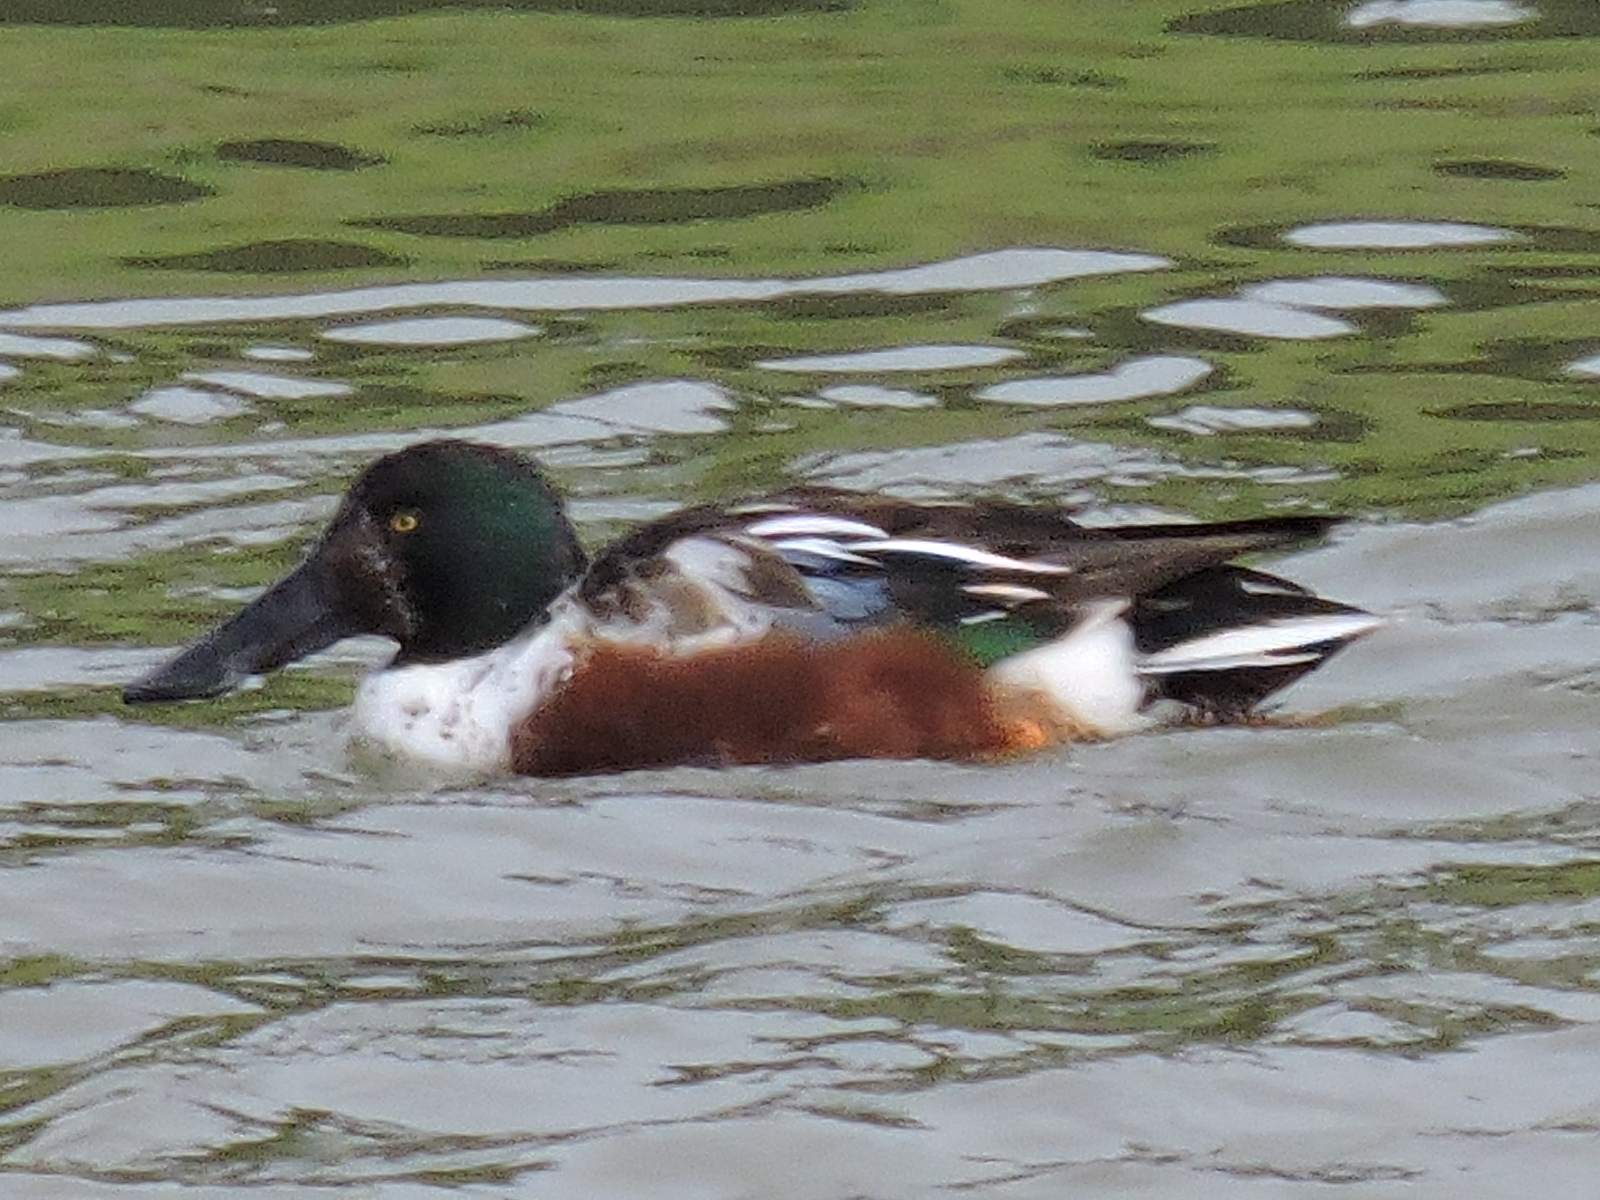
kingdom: Animalia
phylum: Chordata
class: Aves
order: Anseriformes
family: Anatidae
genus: Spatula
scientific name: Spatula clypeata
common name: Northern shoveler
